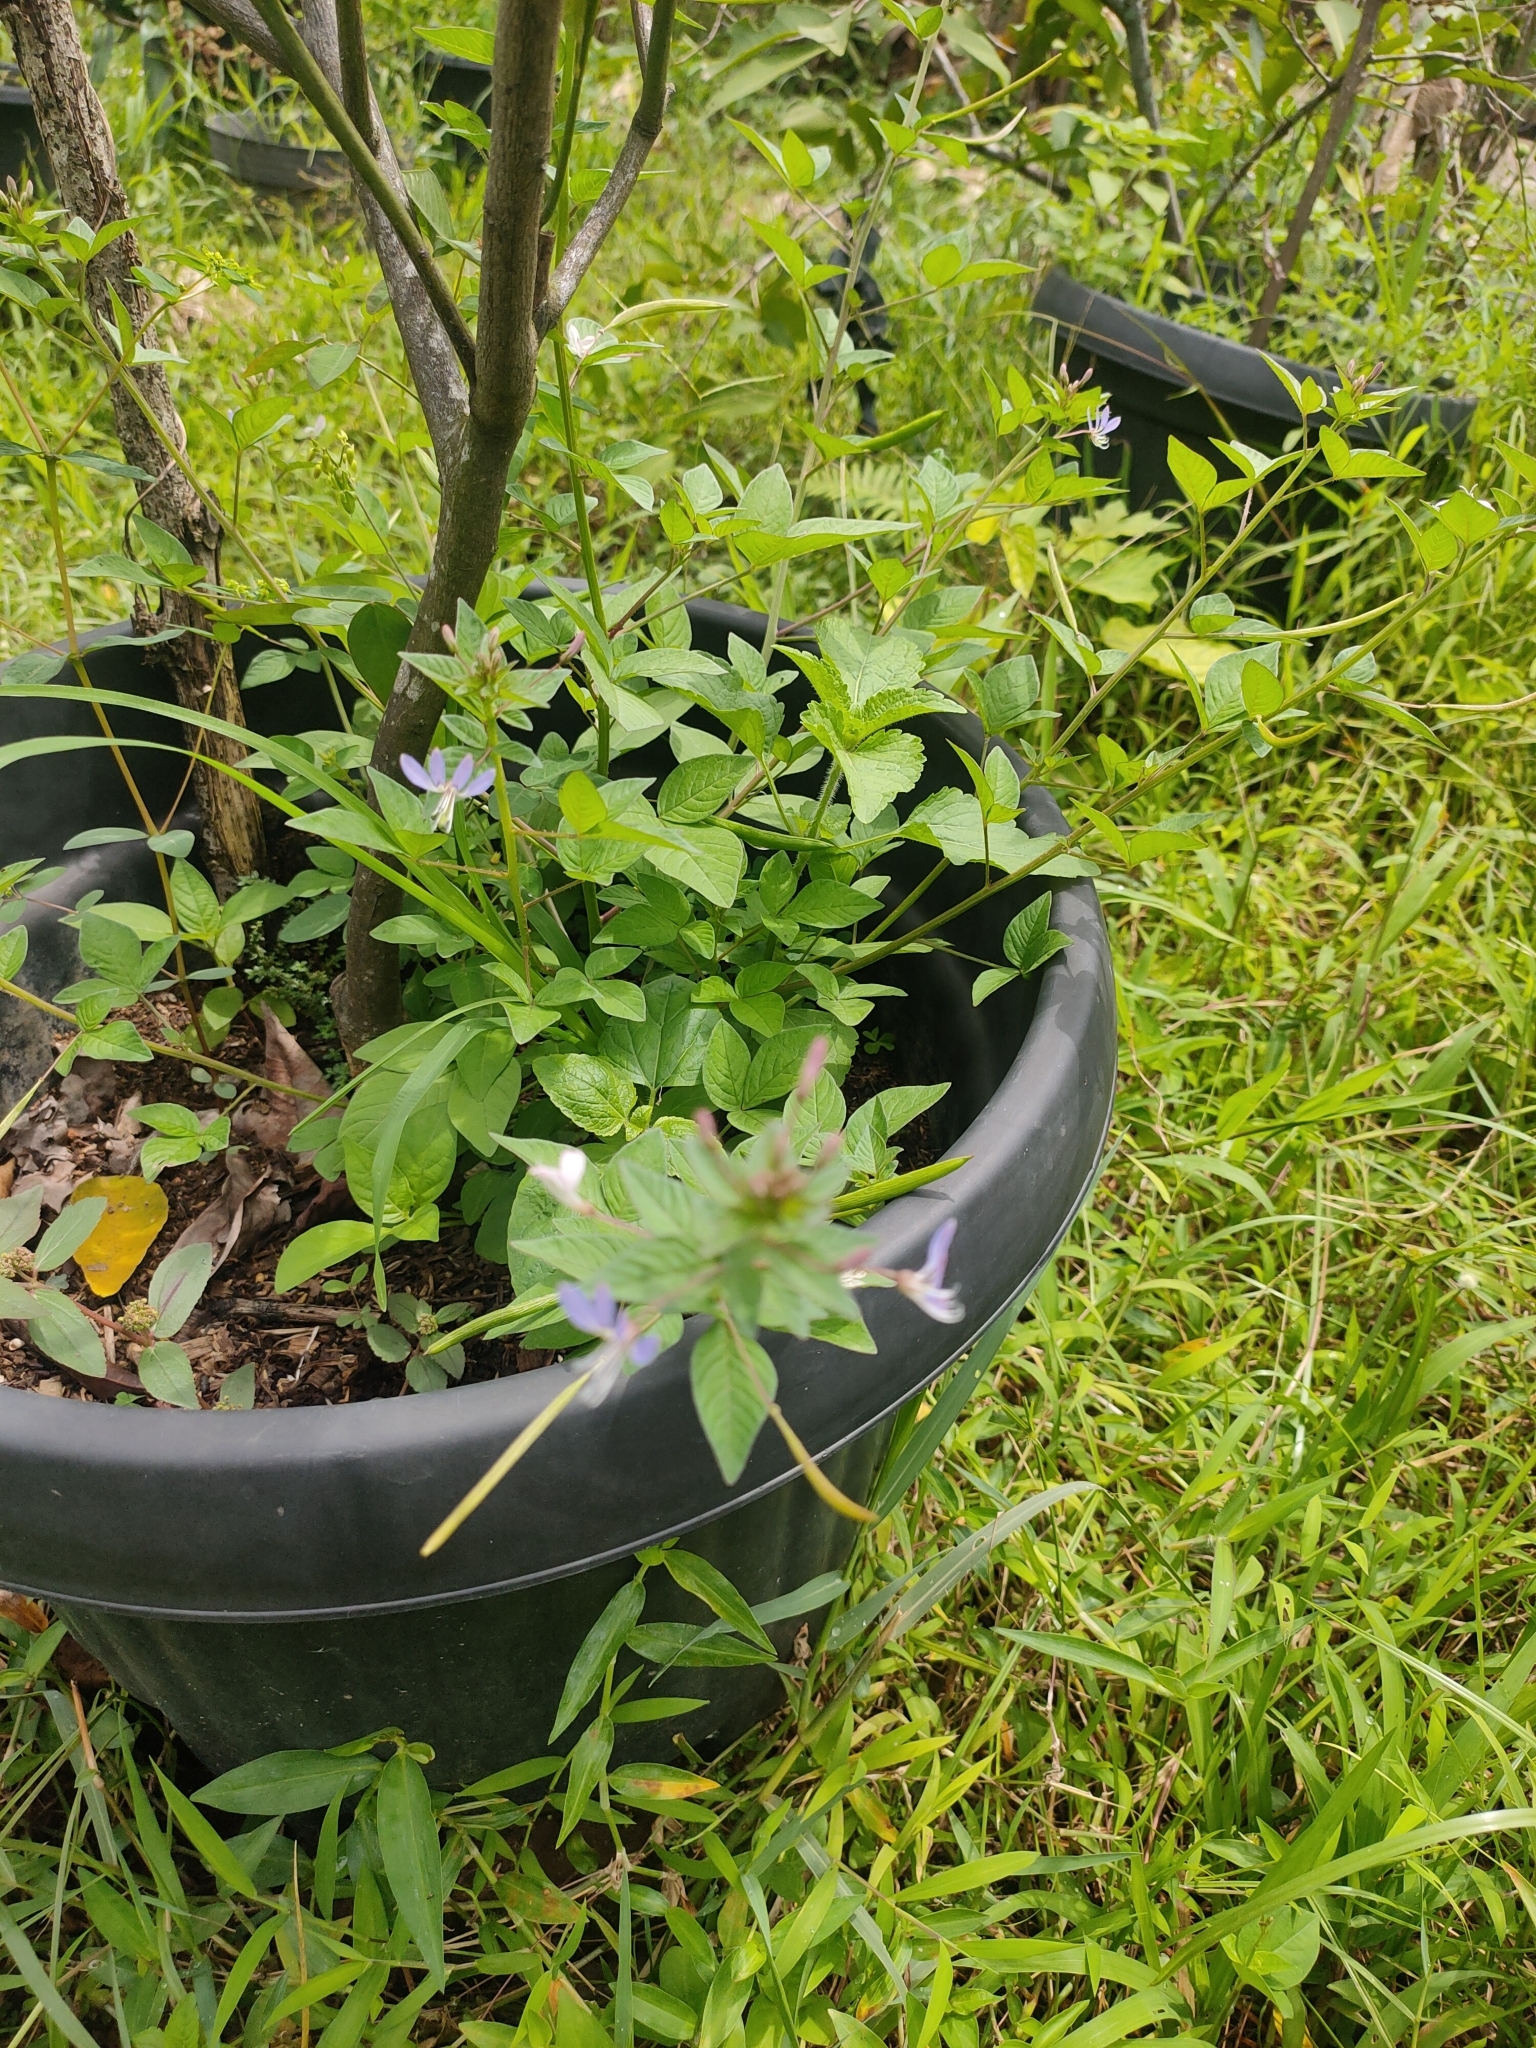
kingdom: Plantae
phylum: Tracheophyta
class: Magnoliopsida
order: Brassicales
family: Cleomaceae
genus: Sieruela
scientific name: Sieruela rutidosperma
